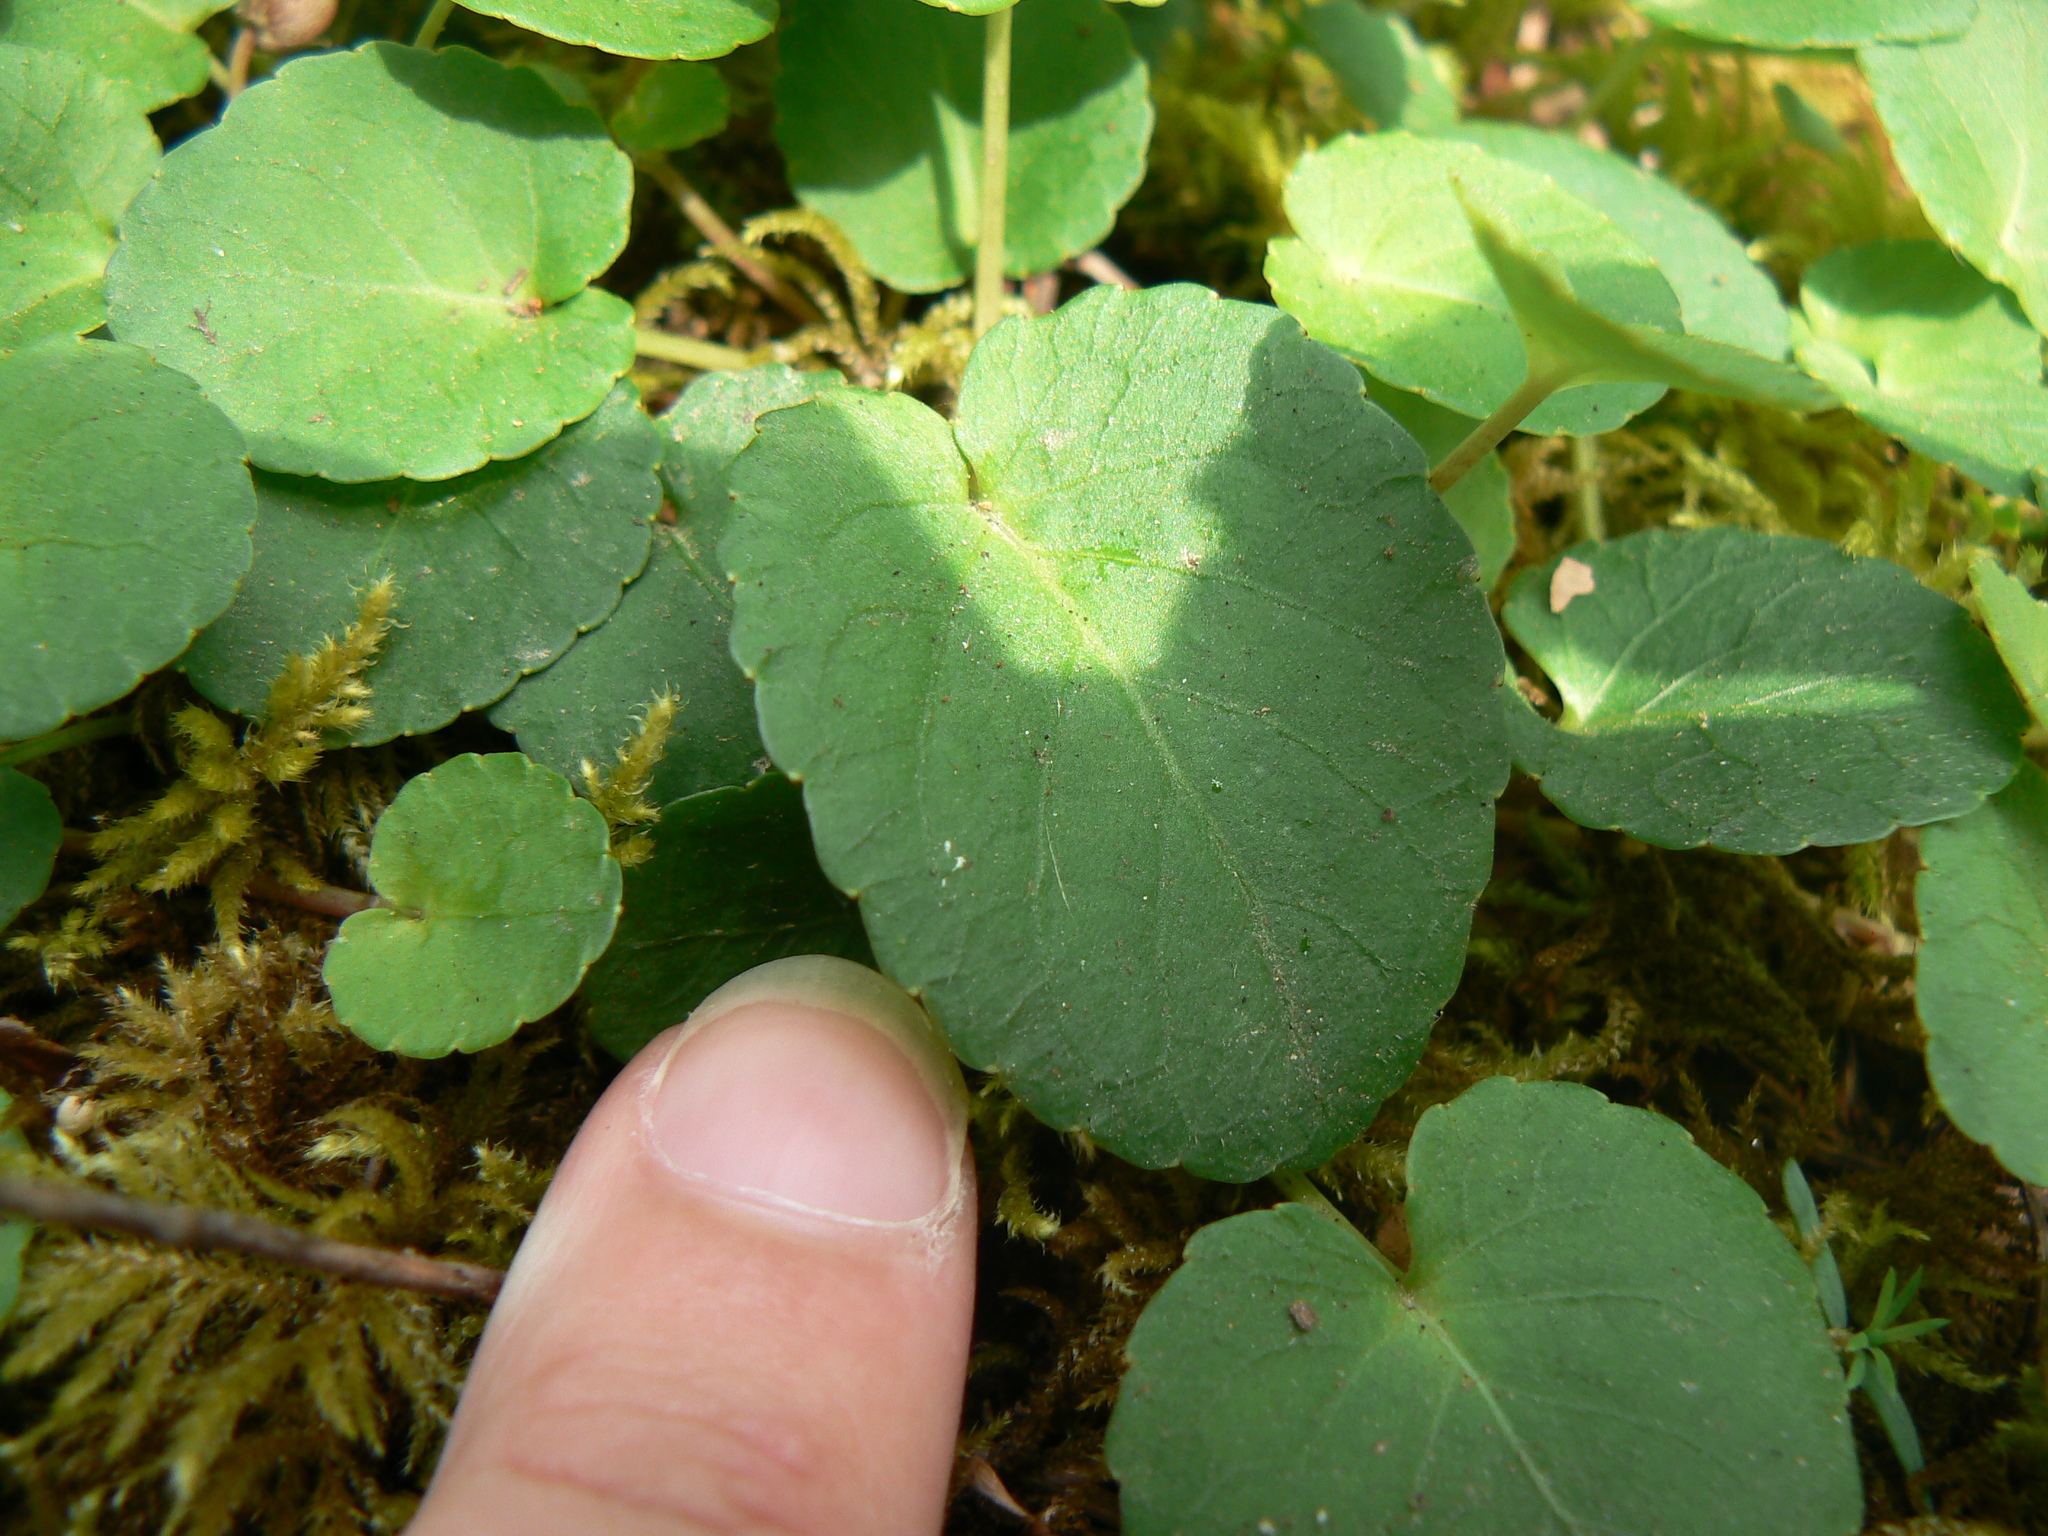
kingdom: Plantae
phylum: Tracheophyta
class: Magnoliopsida
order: Malpighiales
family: Violaceae
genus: Viola
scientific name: Viola sempervirens
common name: Evergreen violet
